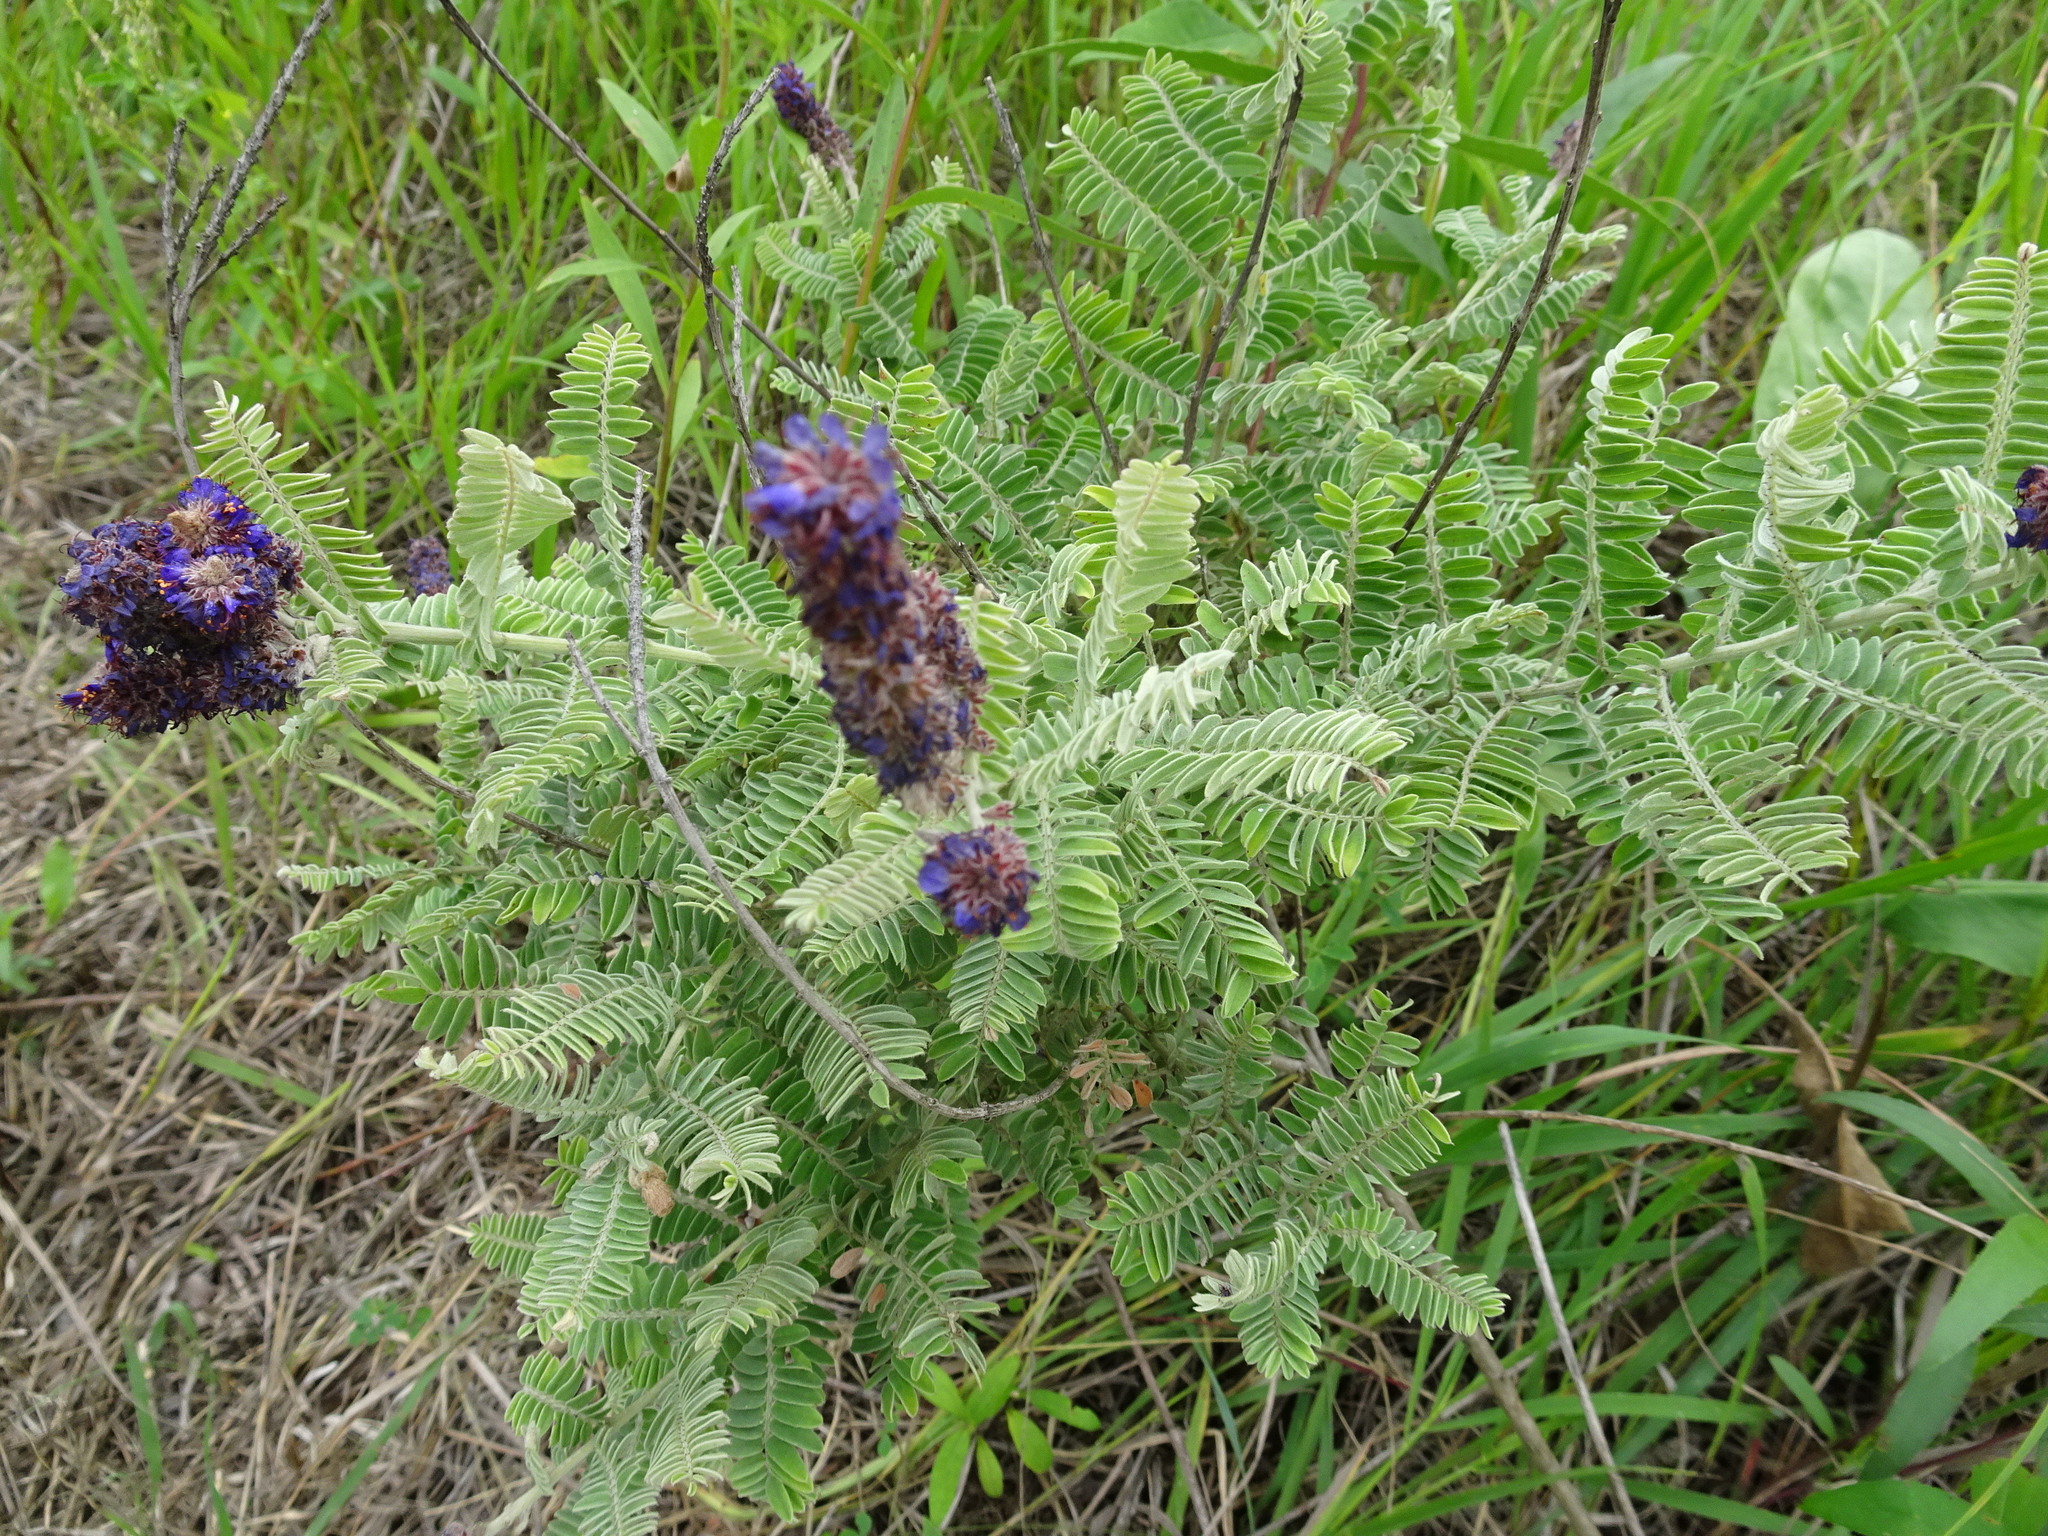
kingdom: Plantae
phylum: Tracheophyta
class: Magnoliopsida
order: Fabales
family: Fabaceae
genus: Amorpha
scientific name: Amorpha canescens
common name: Leadplant
